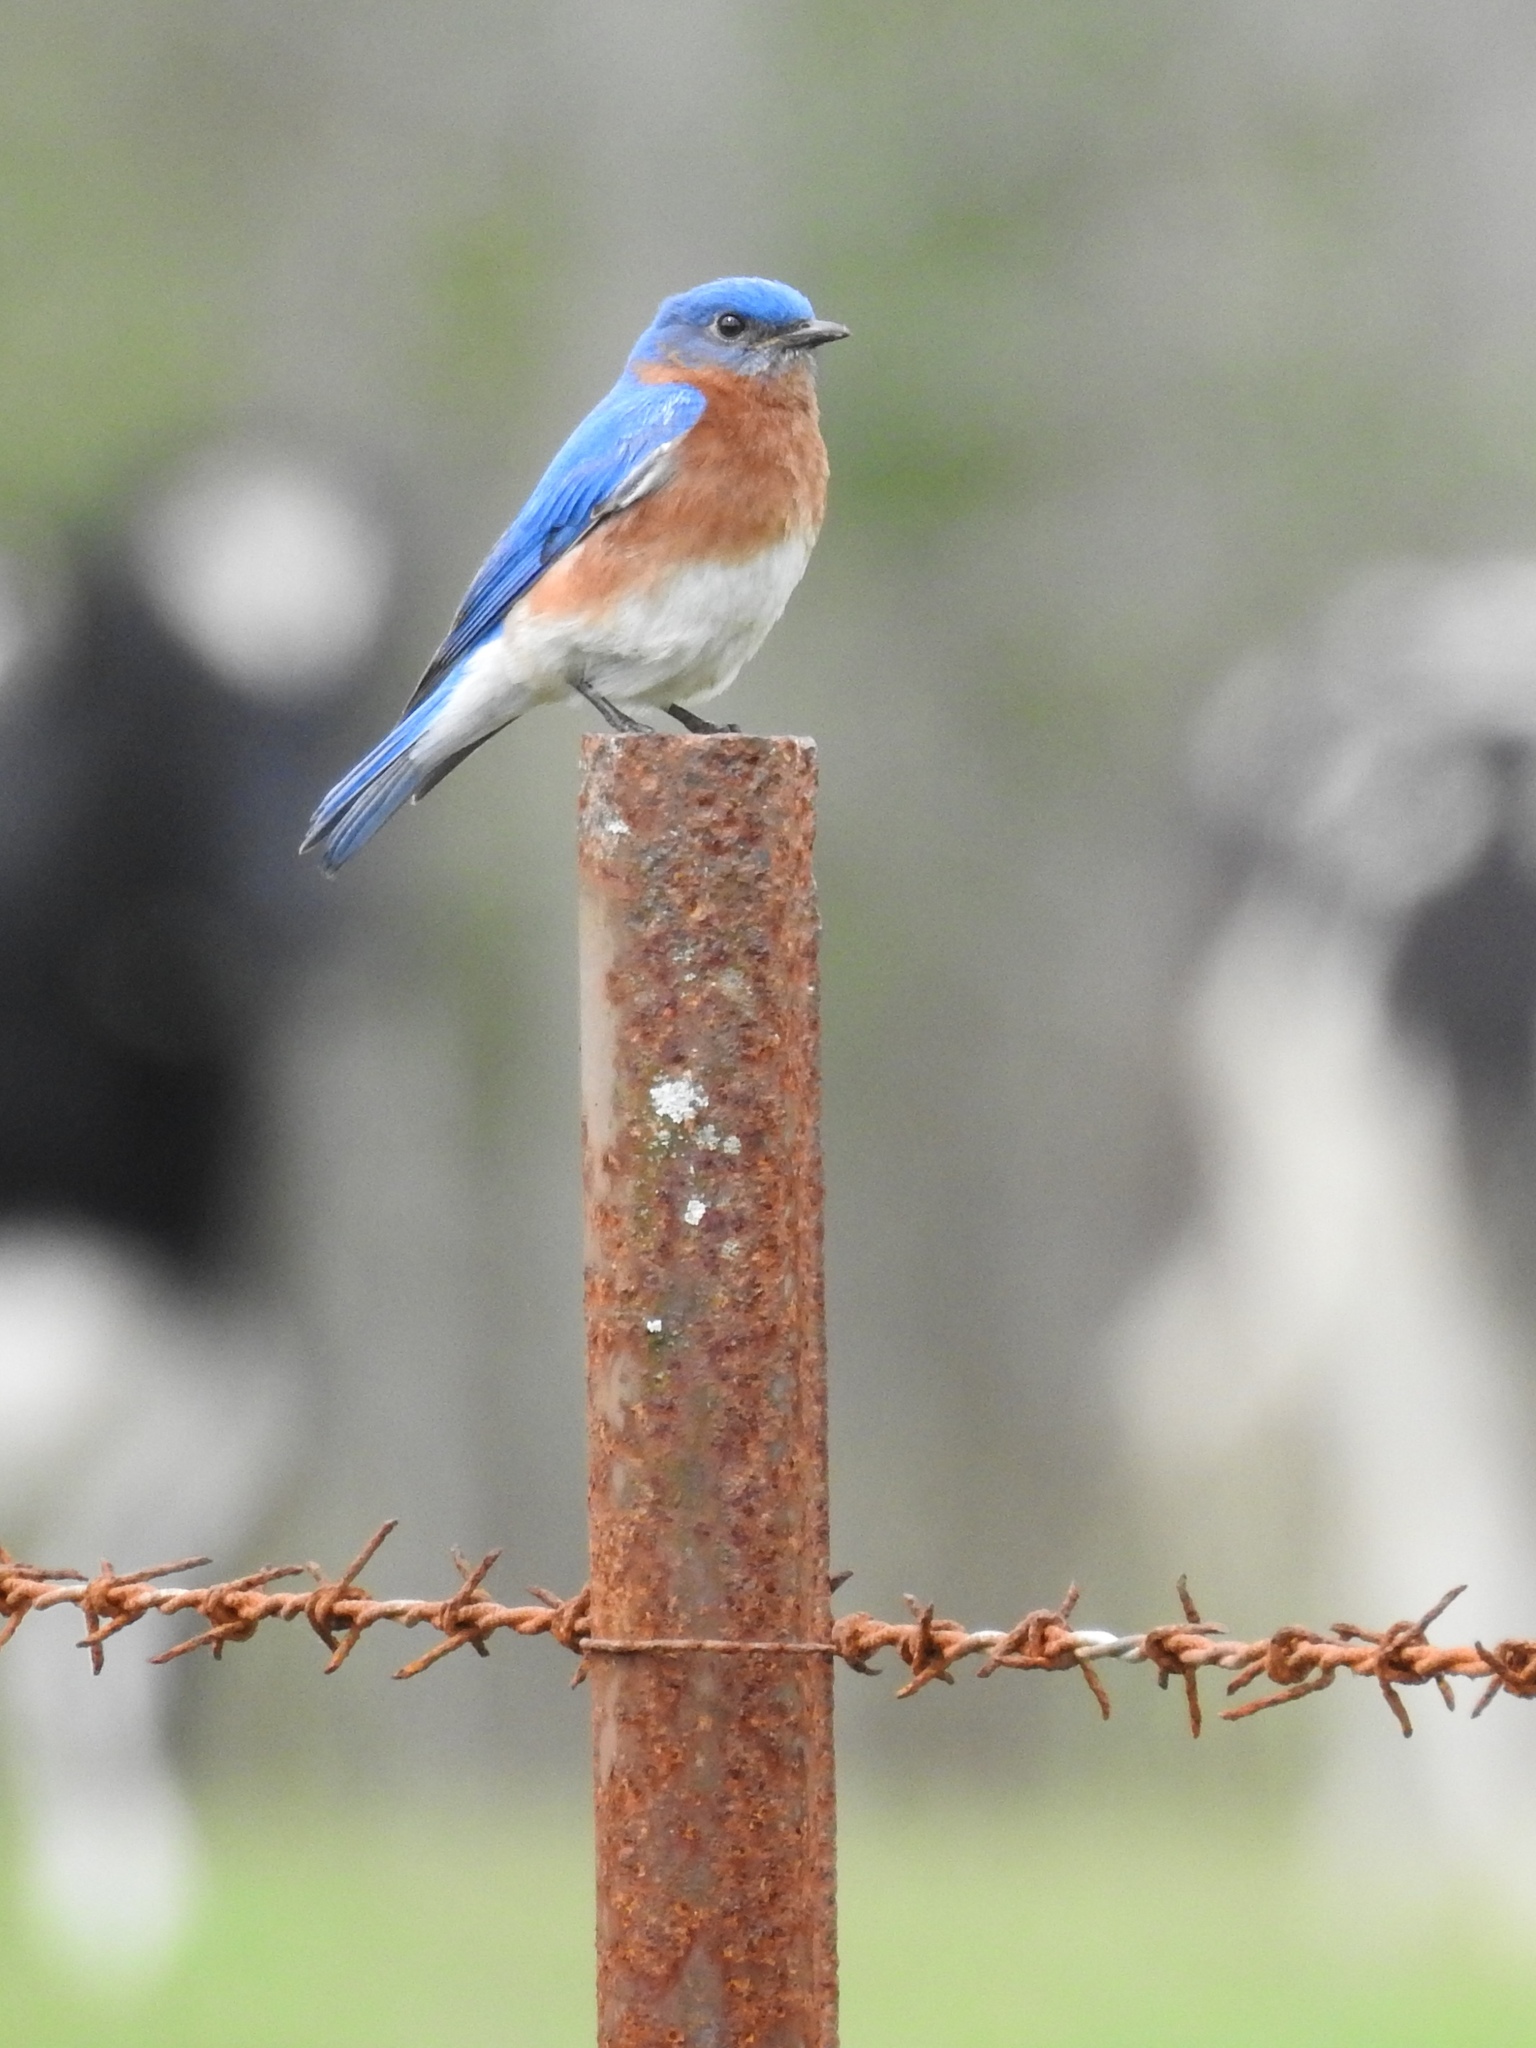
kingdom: Animalia
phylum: Chordata
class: Aves
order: Passeriformes
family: Turdidae
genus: Sialia
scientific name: Sialia sialis
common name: Eastern bluebird
